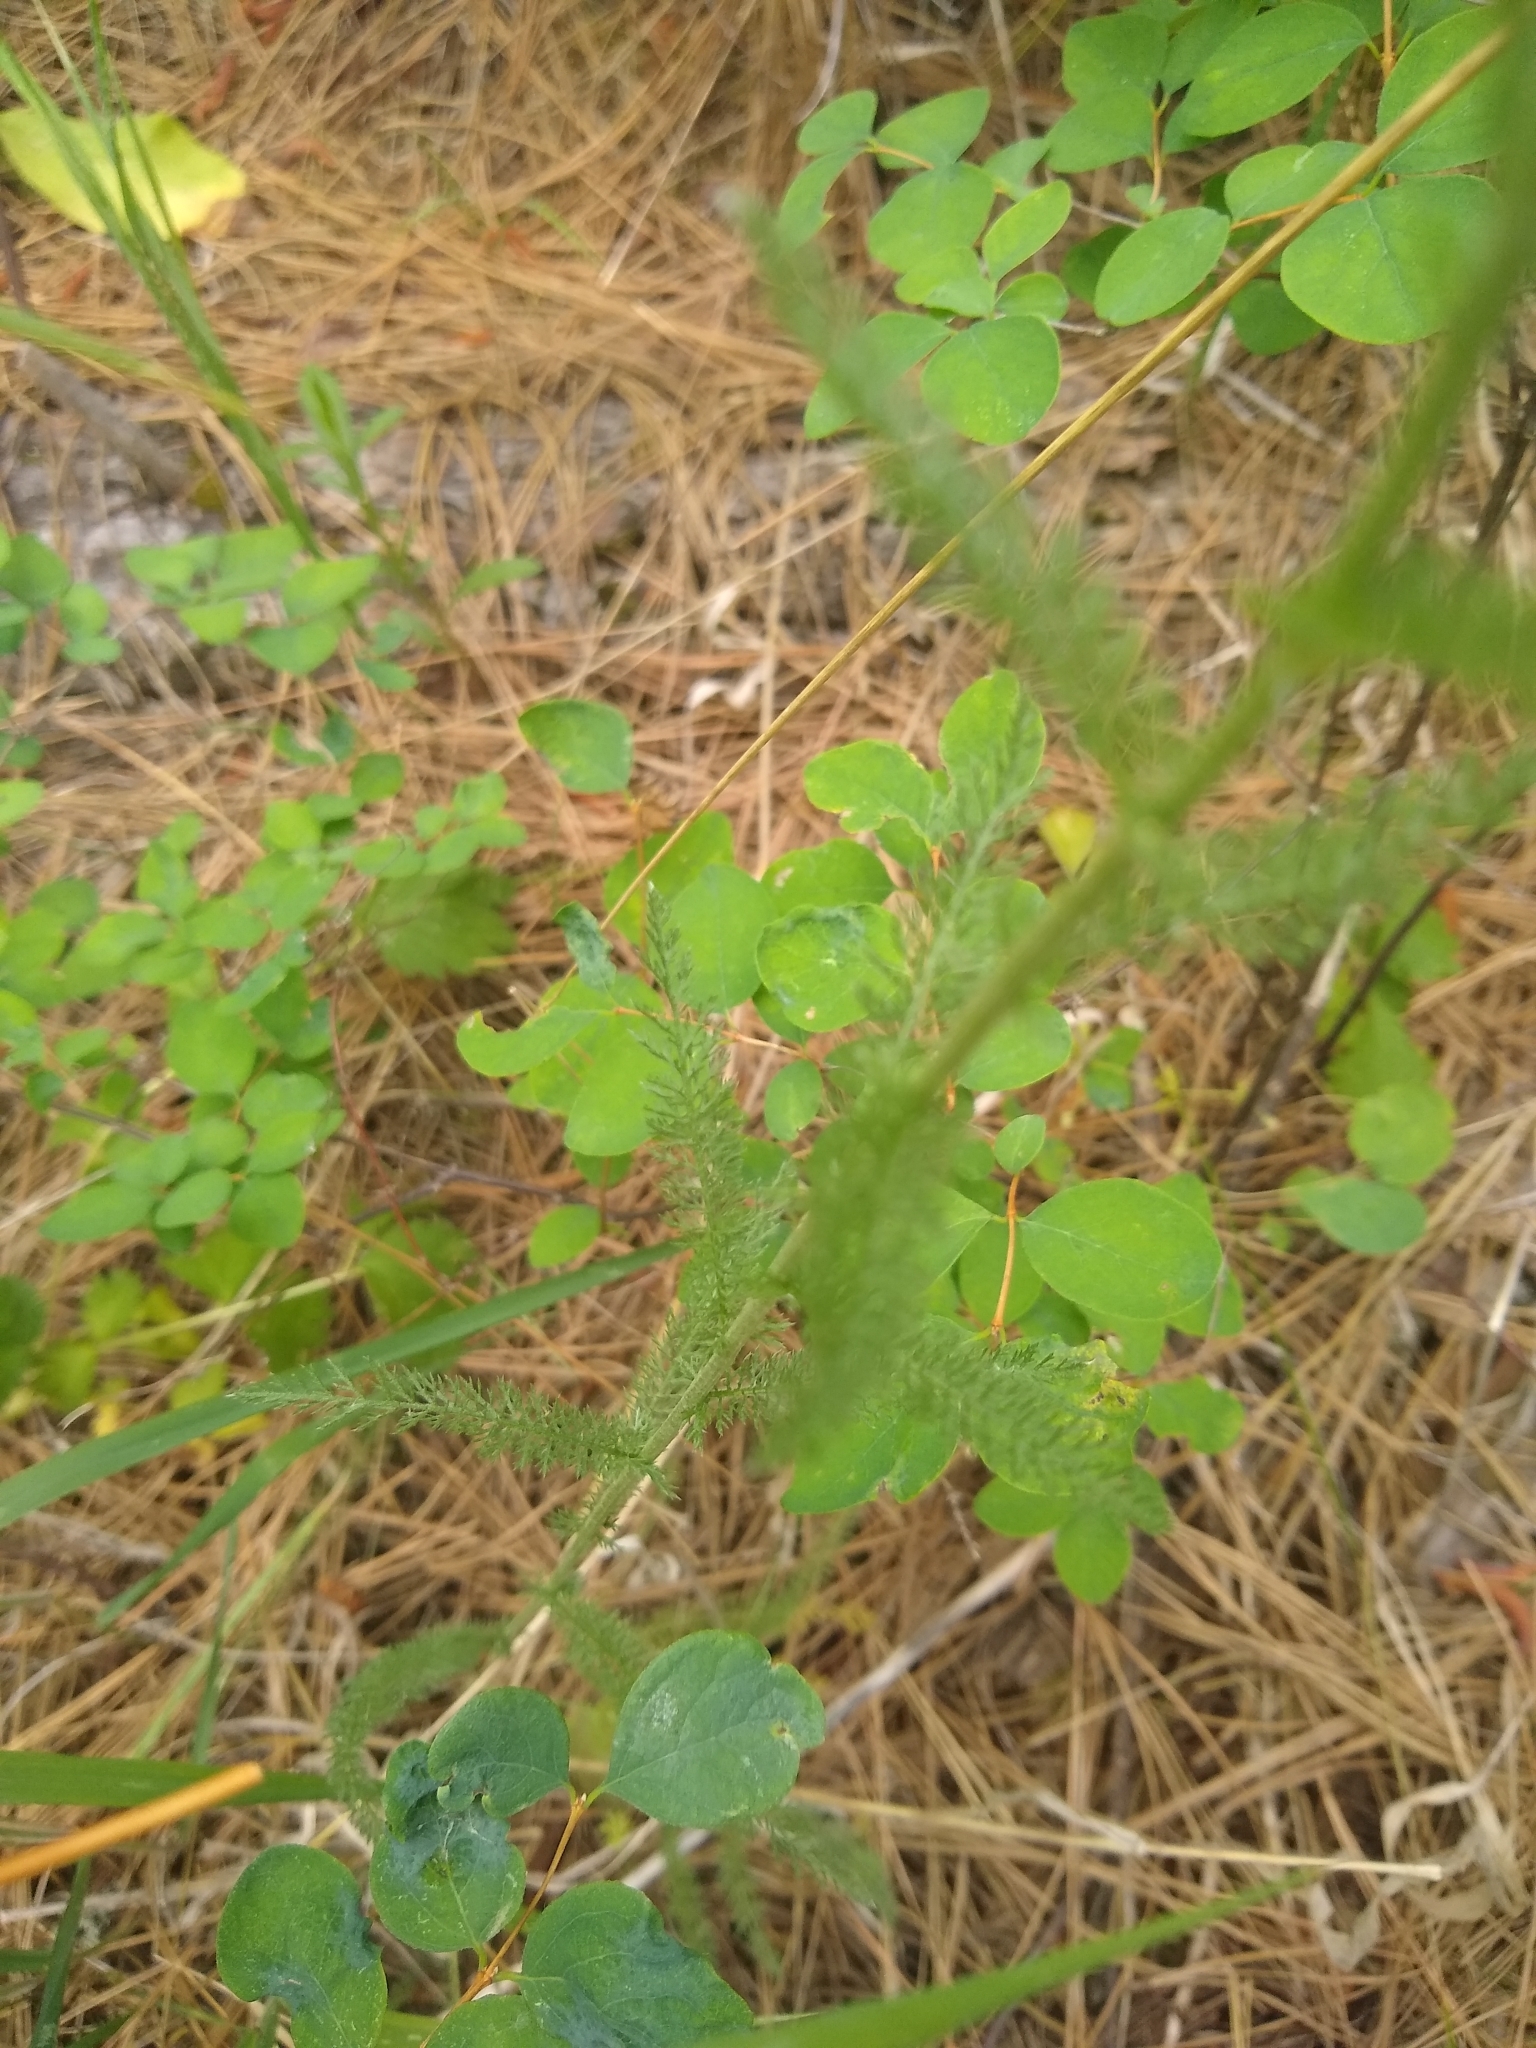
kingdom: Plantae
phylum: Tracheophyta
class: Magnoliopsida
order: Asterales
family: Asteraceae
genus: Achillea
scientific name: Achillea millefolium
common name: Yarrow
